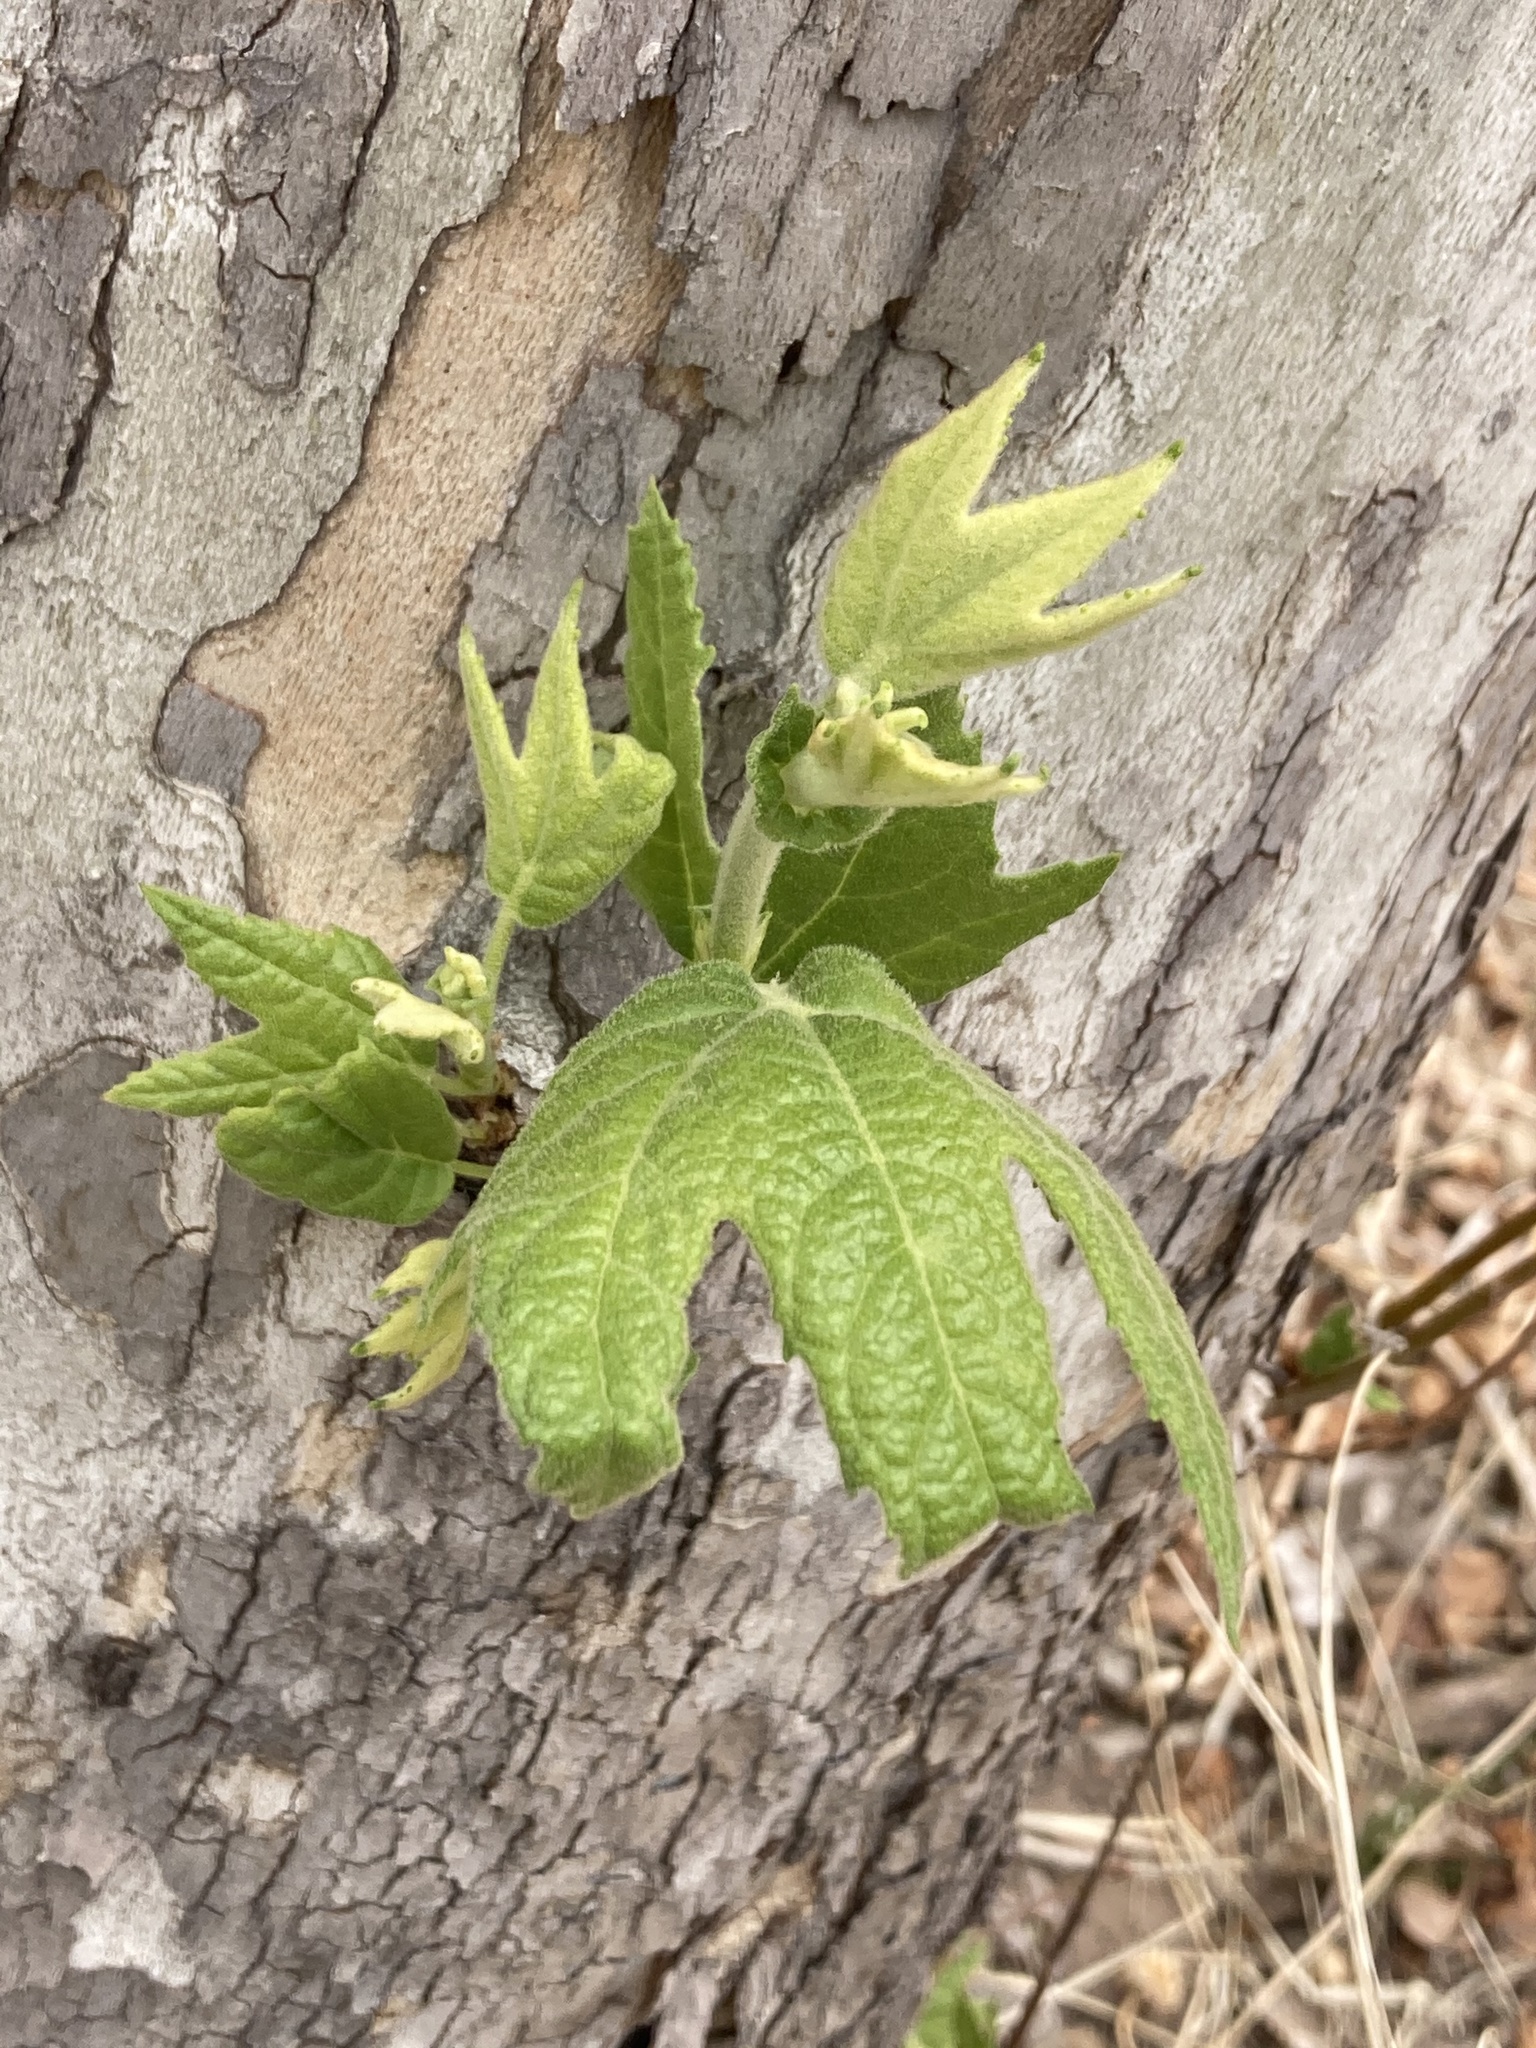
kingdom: Plantae
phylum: Tracheophyta
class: Magnoliopsida
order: Proteales
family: Platanaceae
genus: Platanus
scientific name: Platanus wrightii
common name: Arizona sycamore
